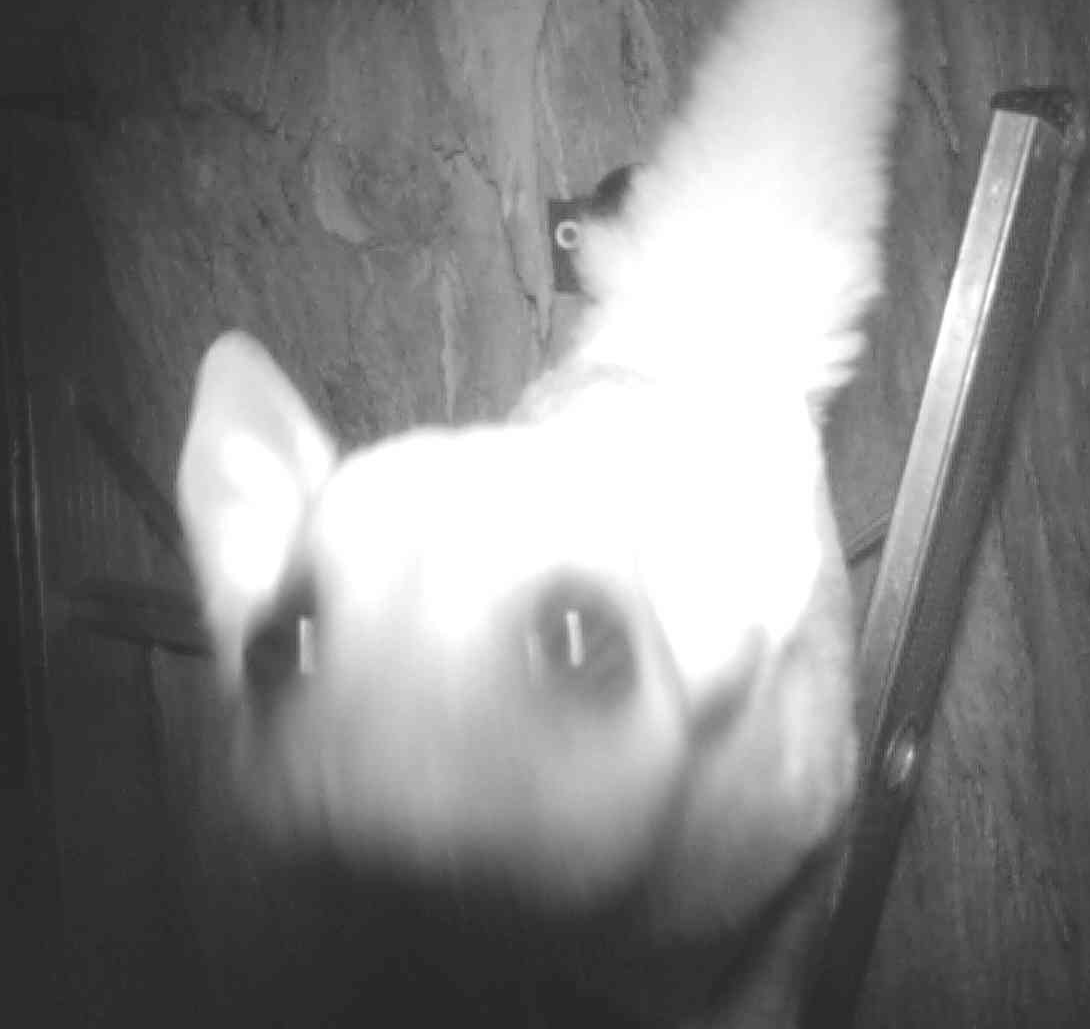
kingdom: Animalia
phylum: Chordata
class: Mammalia
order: Diprotodontia
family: Petauridae
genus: Petaurus
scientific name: Petaurus breviceps
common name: Sugar glider
